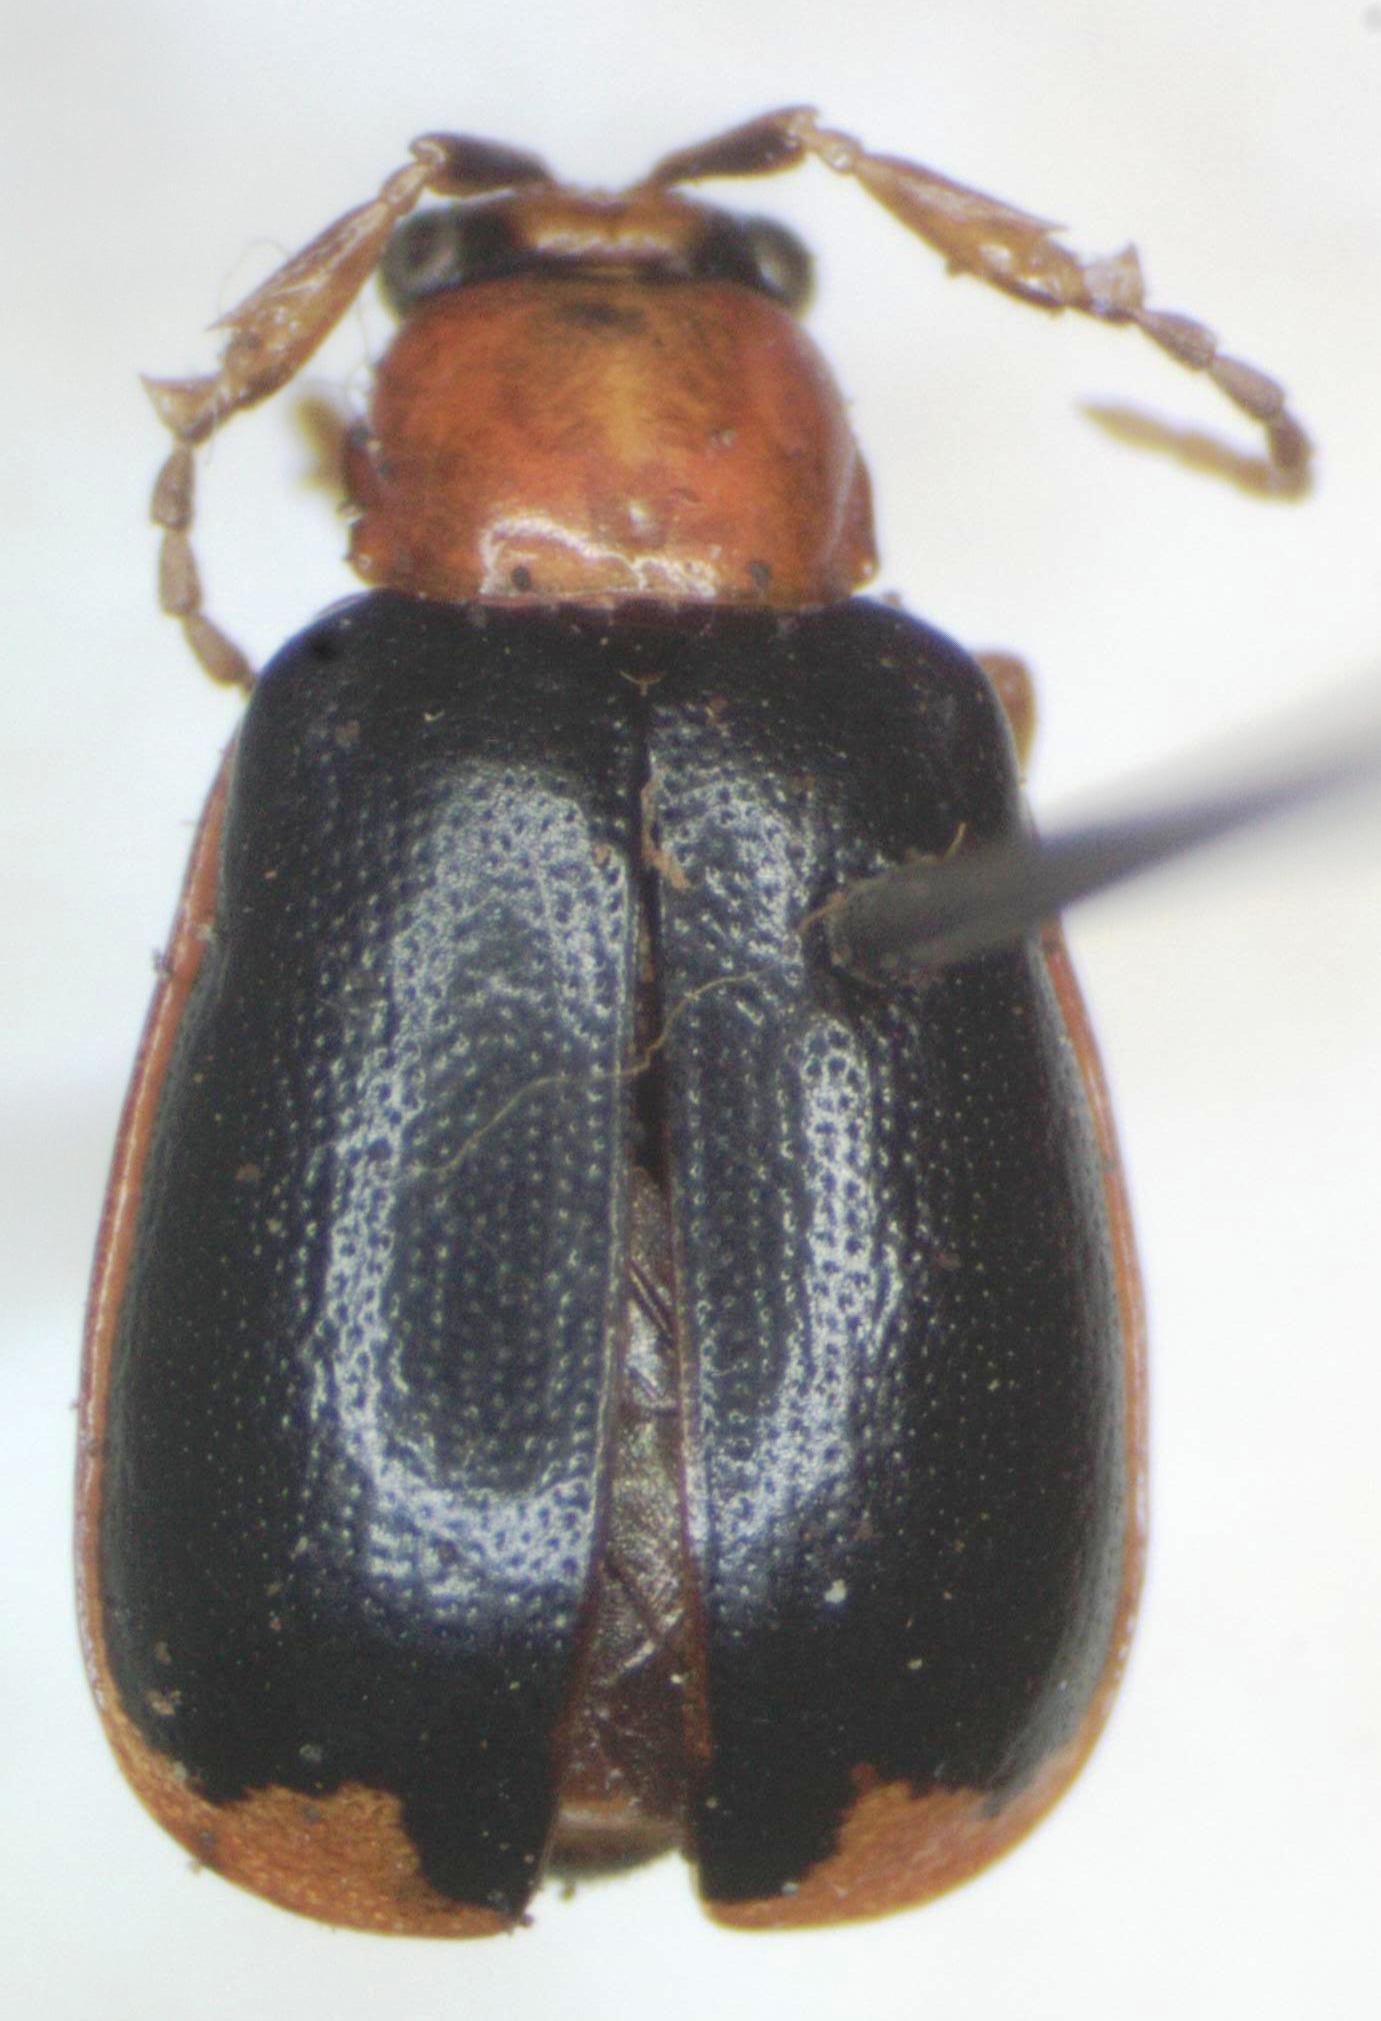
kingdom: Animalia
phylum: Arthropoda
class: Insecta
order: Coleoptera
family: Chrysomelidae
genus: Cerotoma
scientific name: Cerotoma atrofasciata
